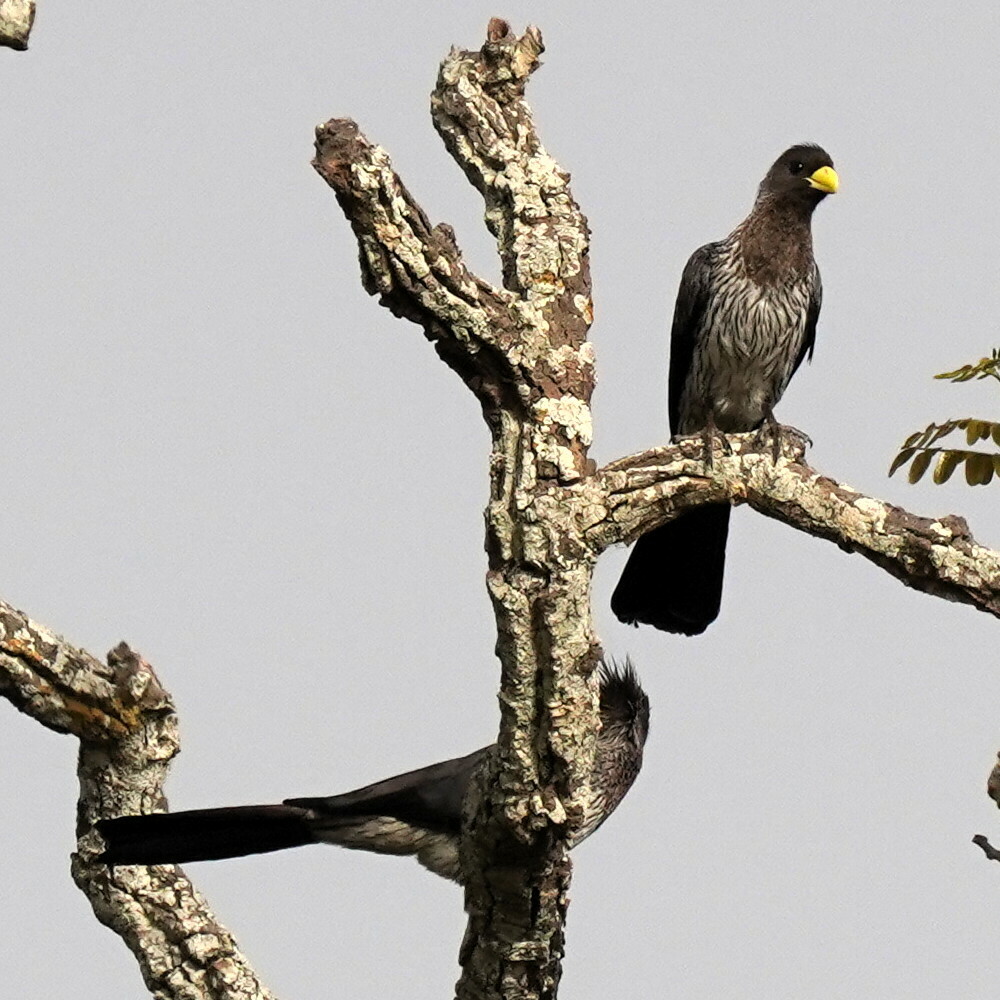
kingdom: Animalia
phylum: Chordata
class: Aves
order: Musophagiformes
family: Musophagidae
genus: Crinifer
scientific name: Crinifer piscator
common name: Western plantain-eater
